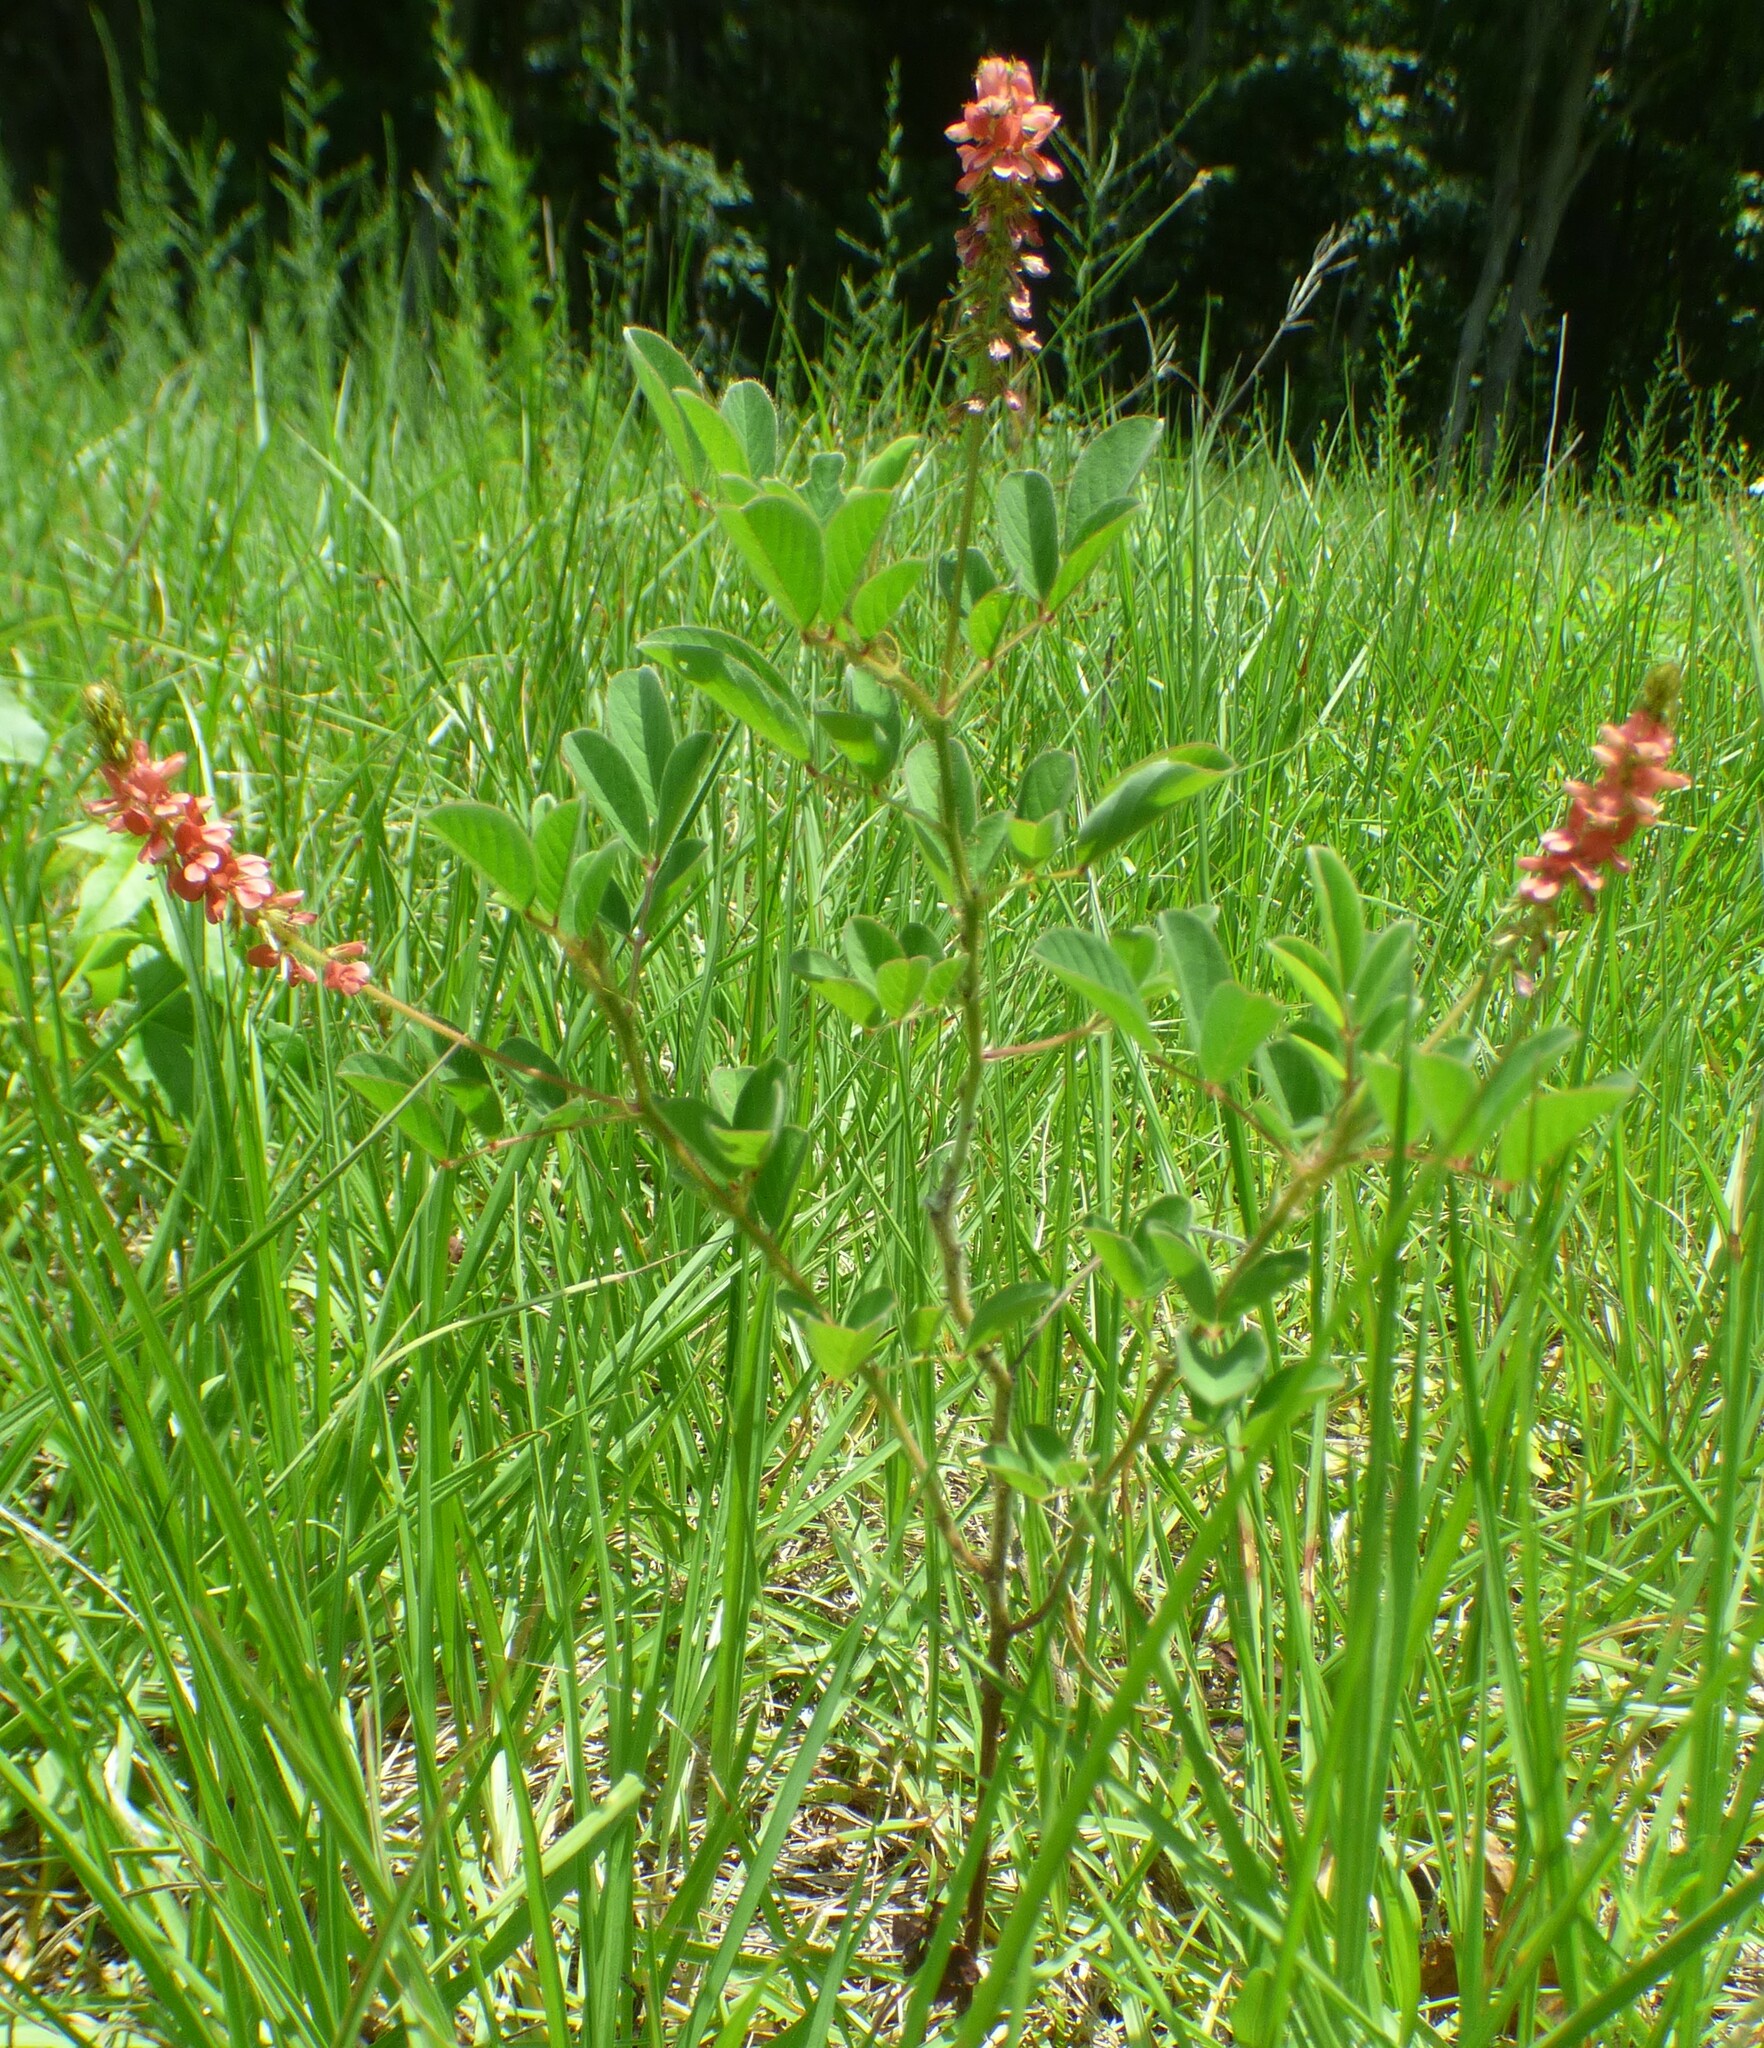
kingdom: Plantae
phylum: Tracheophyta
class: Magnoliopsida
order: Fabales
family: Fabaceae
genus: Indigofera
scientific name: Indigofera hirsuta
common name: Hairy indigo
